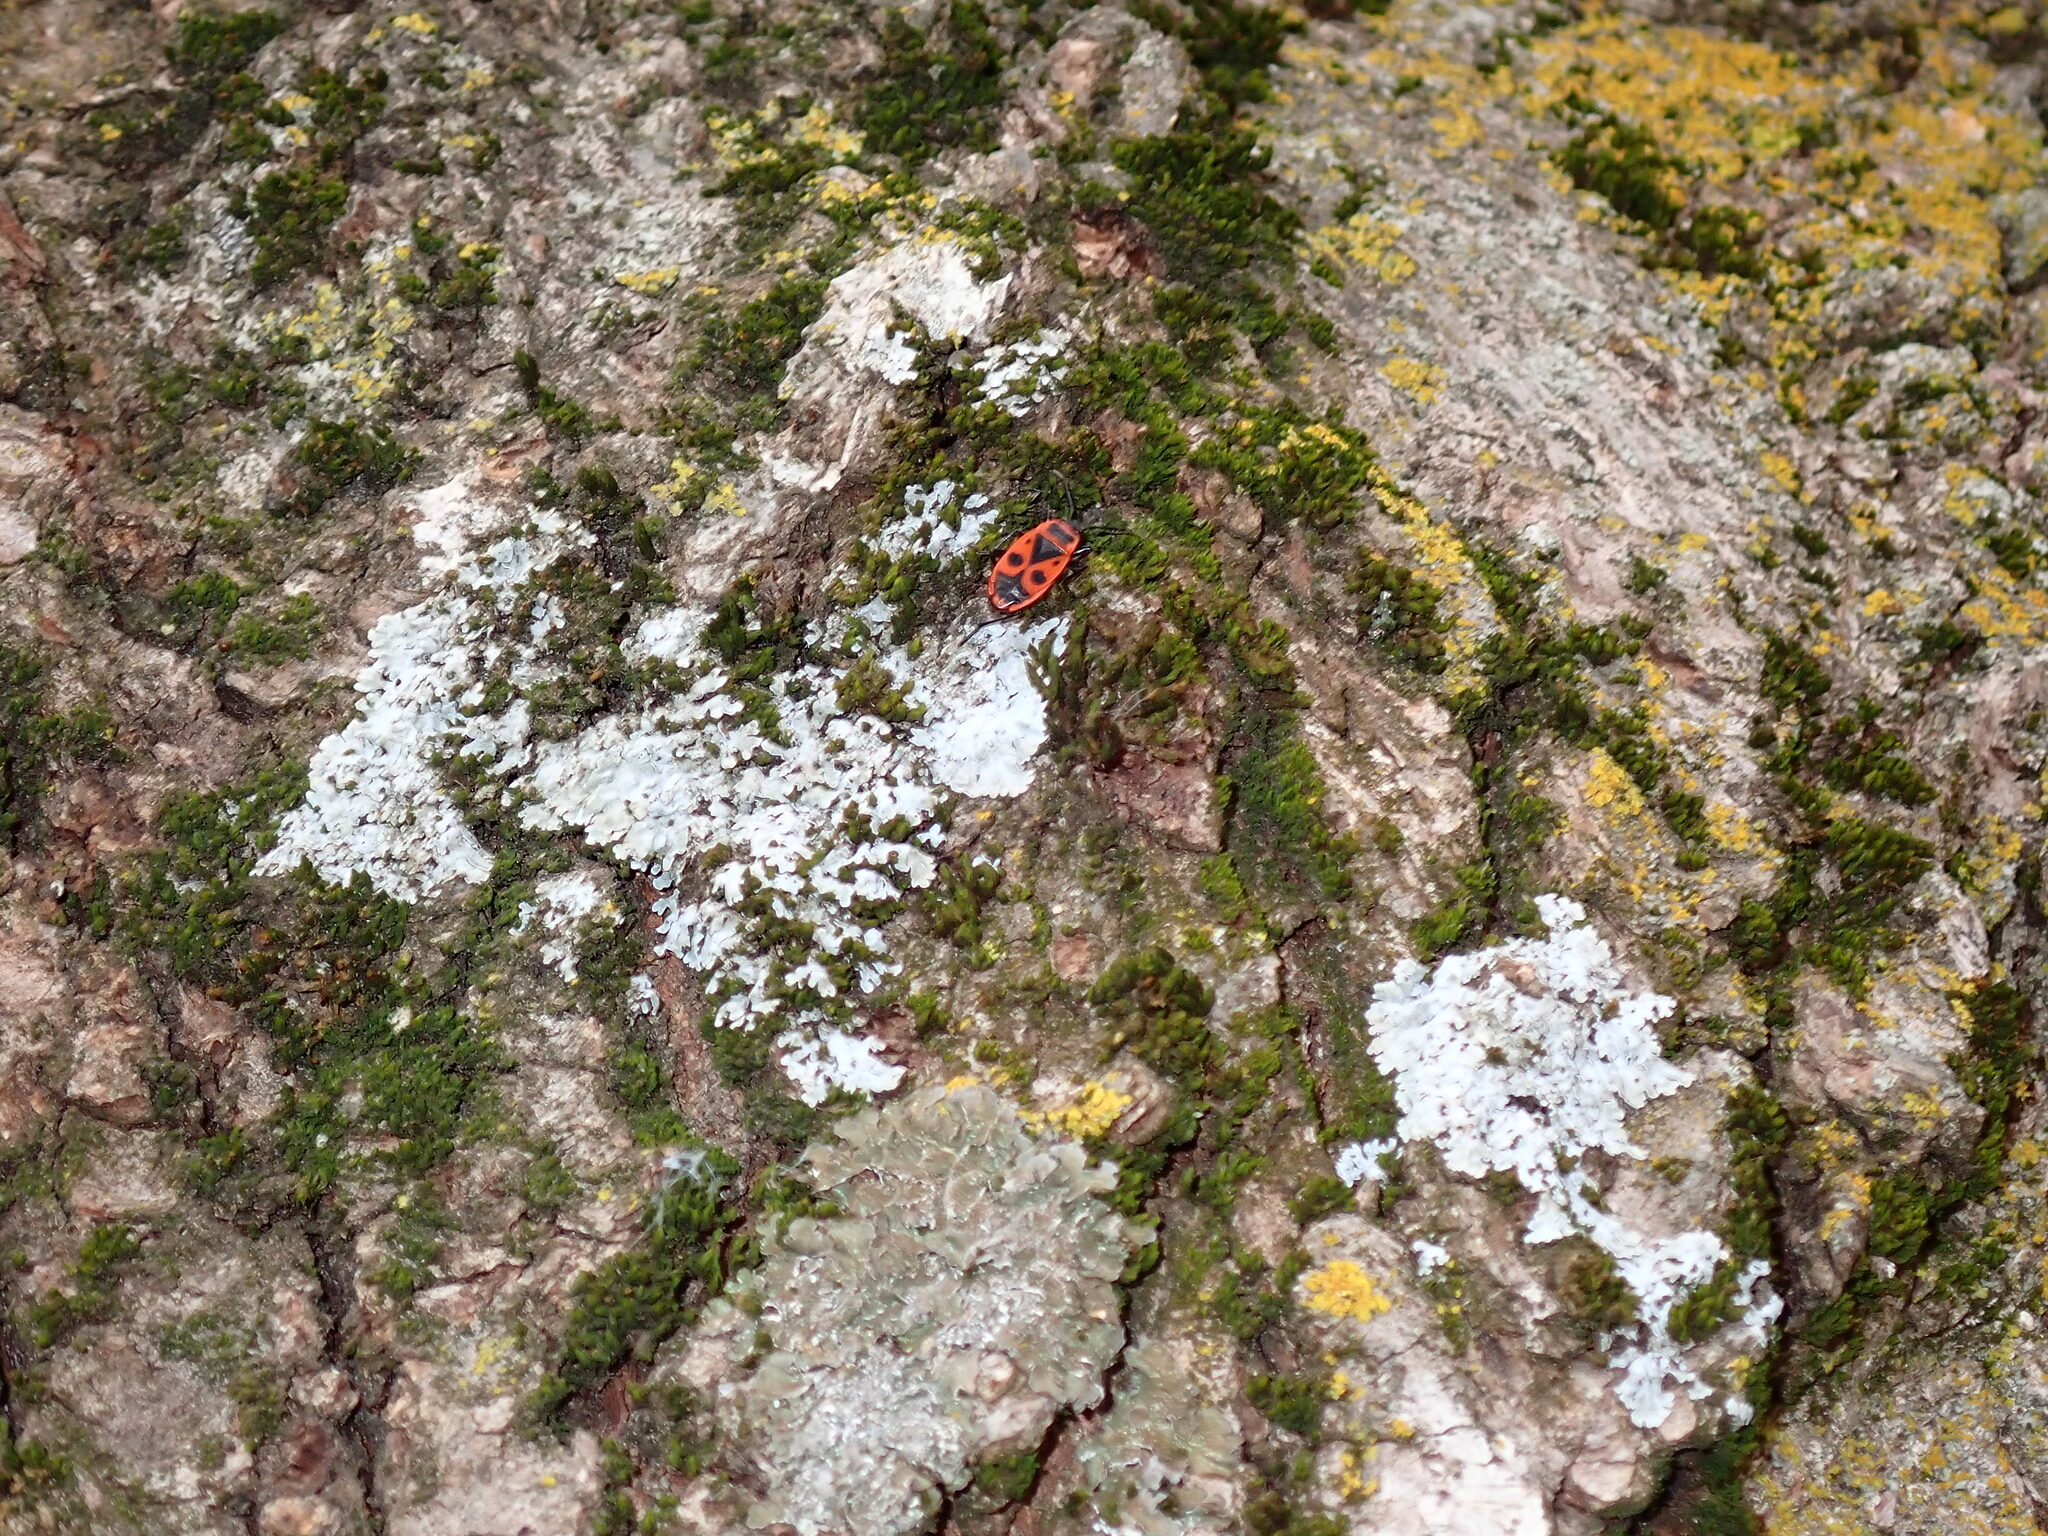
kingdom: Animalia
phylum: Arthropoda
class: Insecta
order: Hemiptera
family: Pyrrhocoridae
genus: Pyrrhocoris
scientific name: Pyrrhocoris apterus
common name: Firebug
